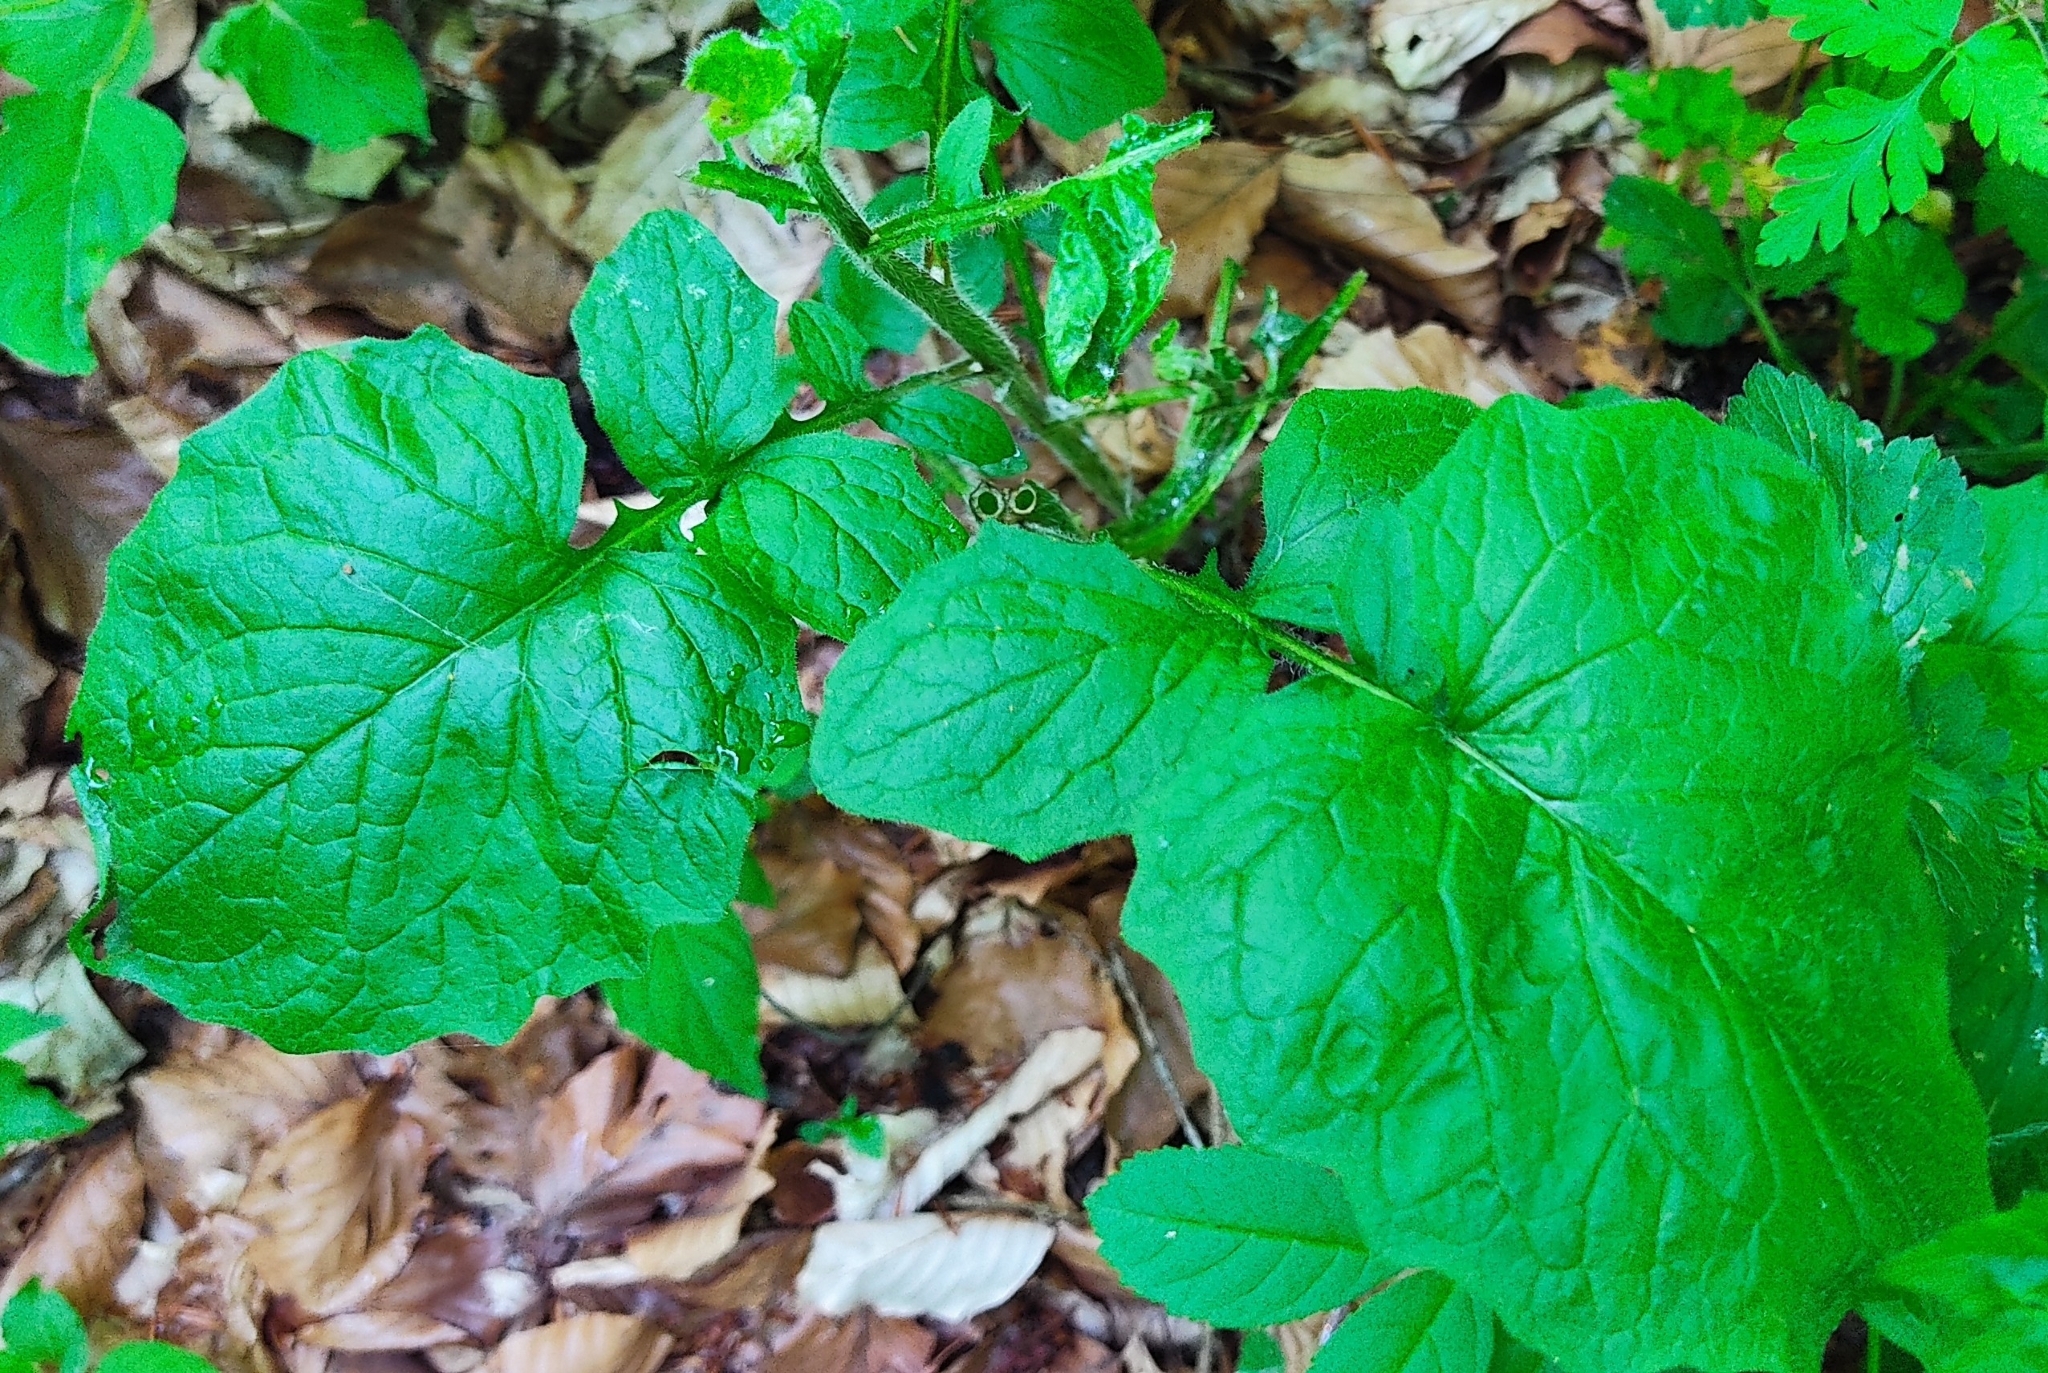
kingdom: Plantae
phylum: Tracheophyta
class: Magnoliopsida
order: Asterales
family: Asteraceae
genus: Lapsana
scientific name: Lapsana communis
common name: Nipplewort
